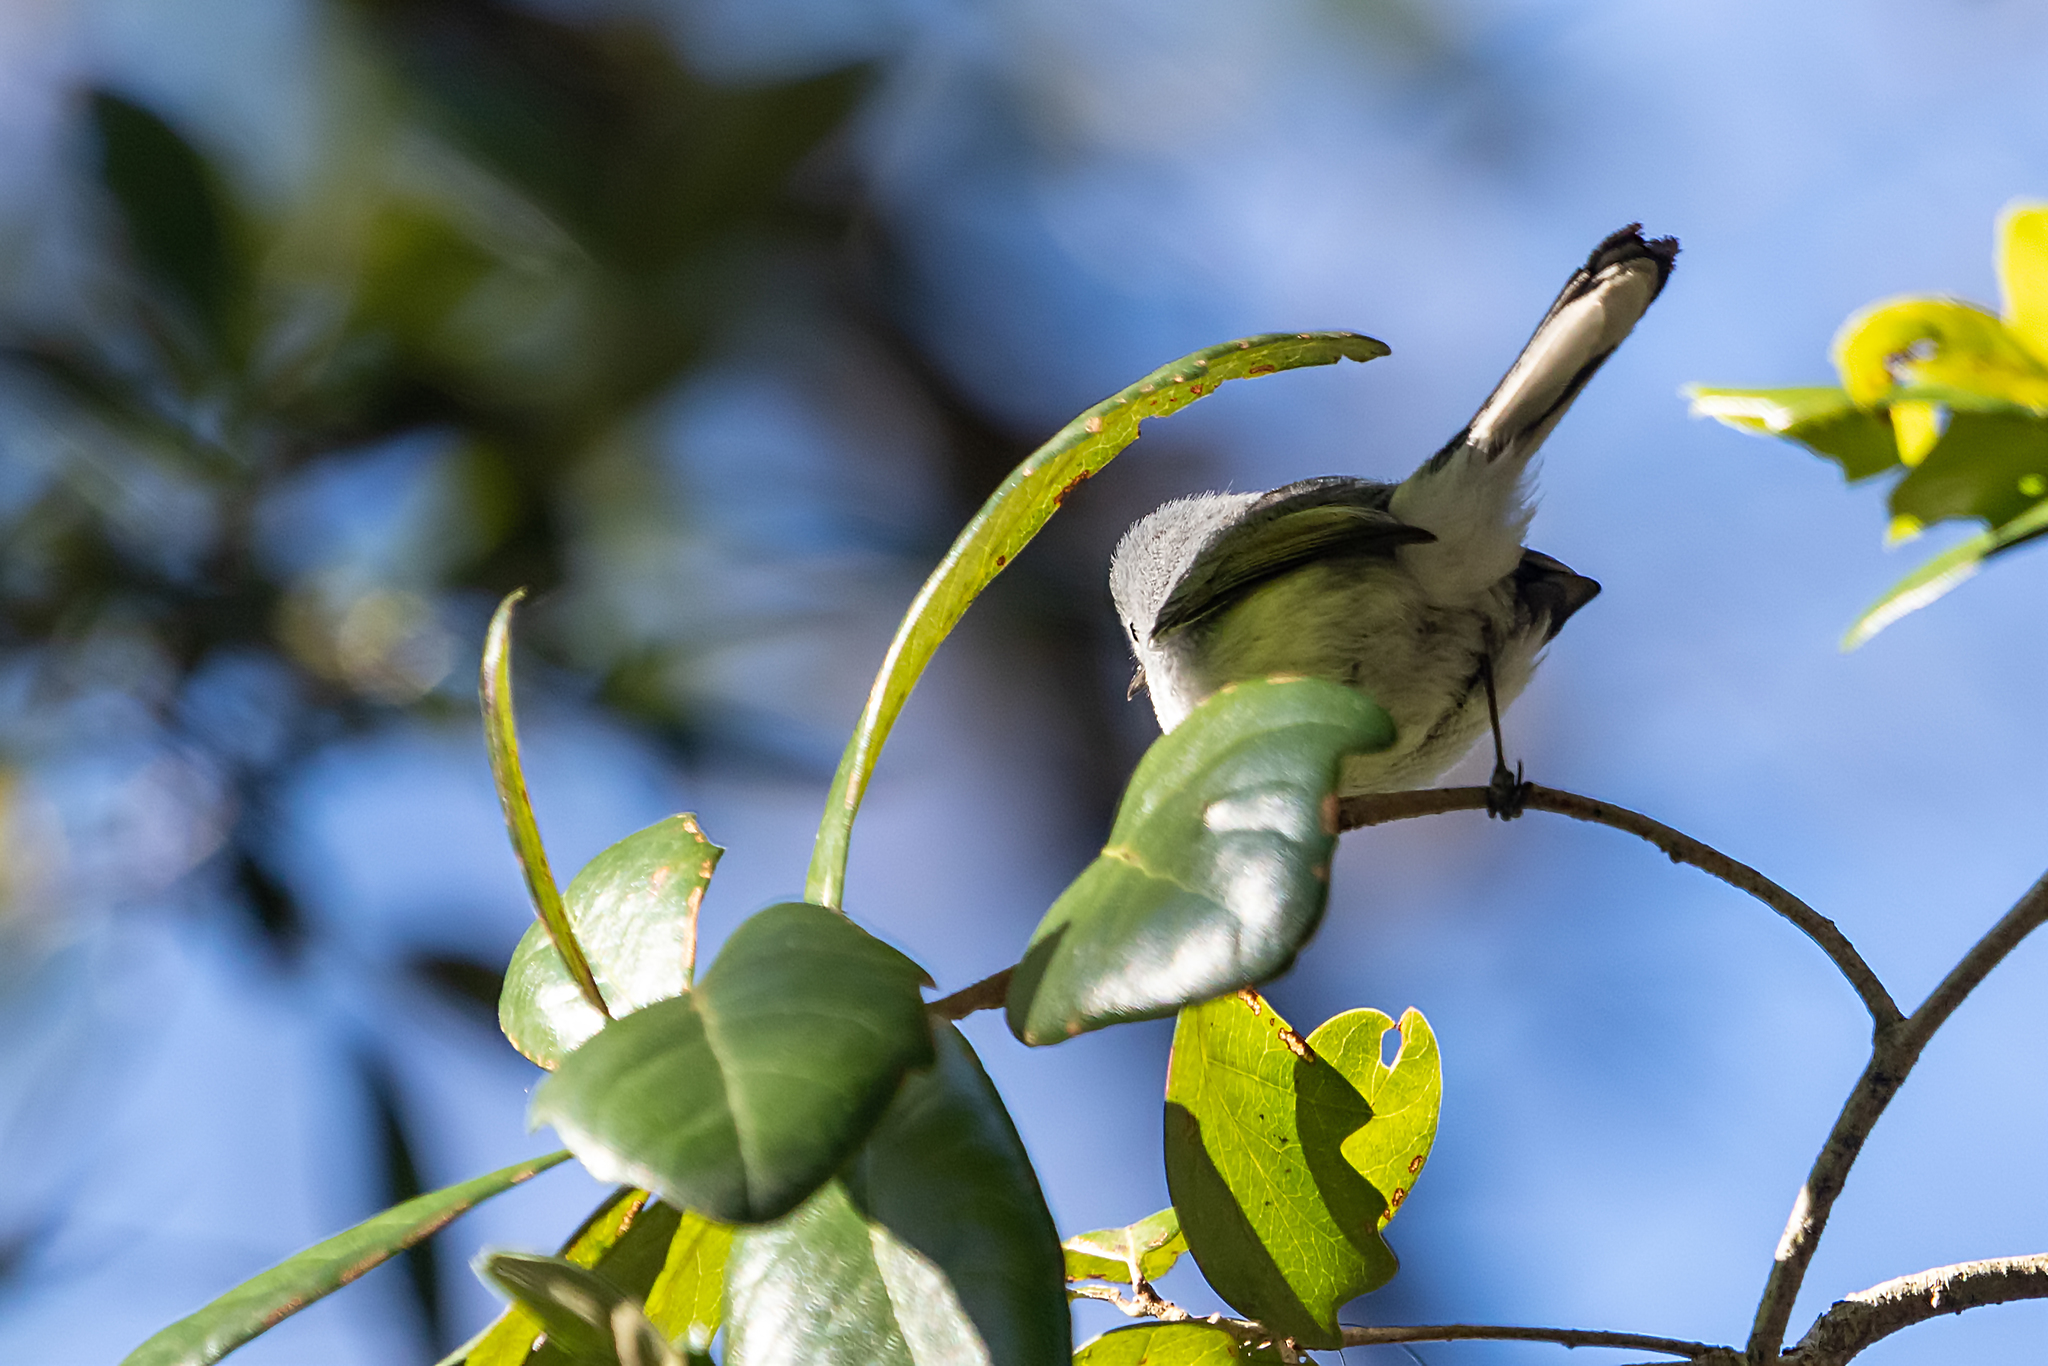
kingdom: Animalia
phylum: Chordata
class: Aves
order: Passeriformes
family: Polioptilidae
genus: Polioptila
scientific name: Polioptila caerulea
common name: Blue-gray gnatcatcher
